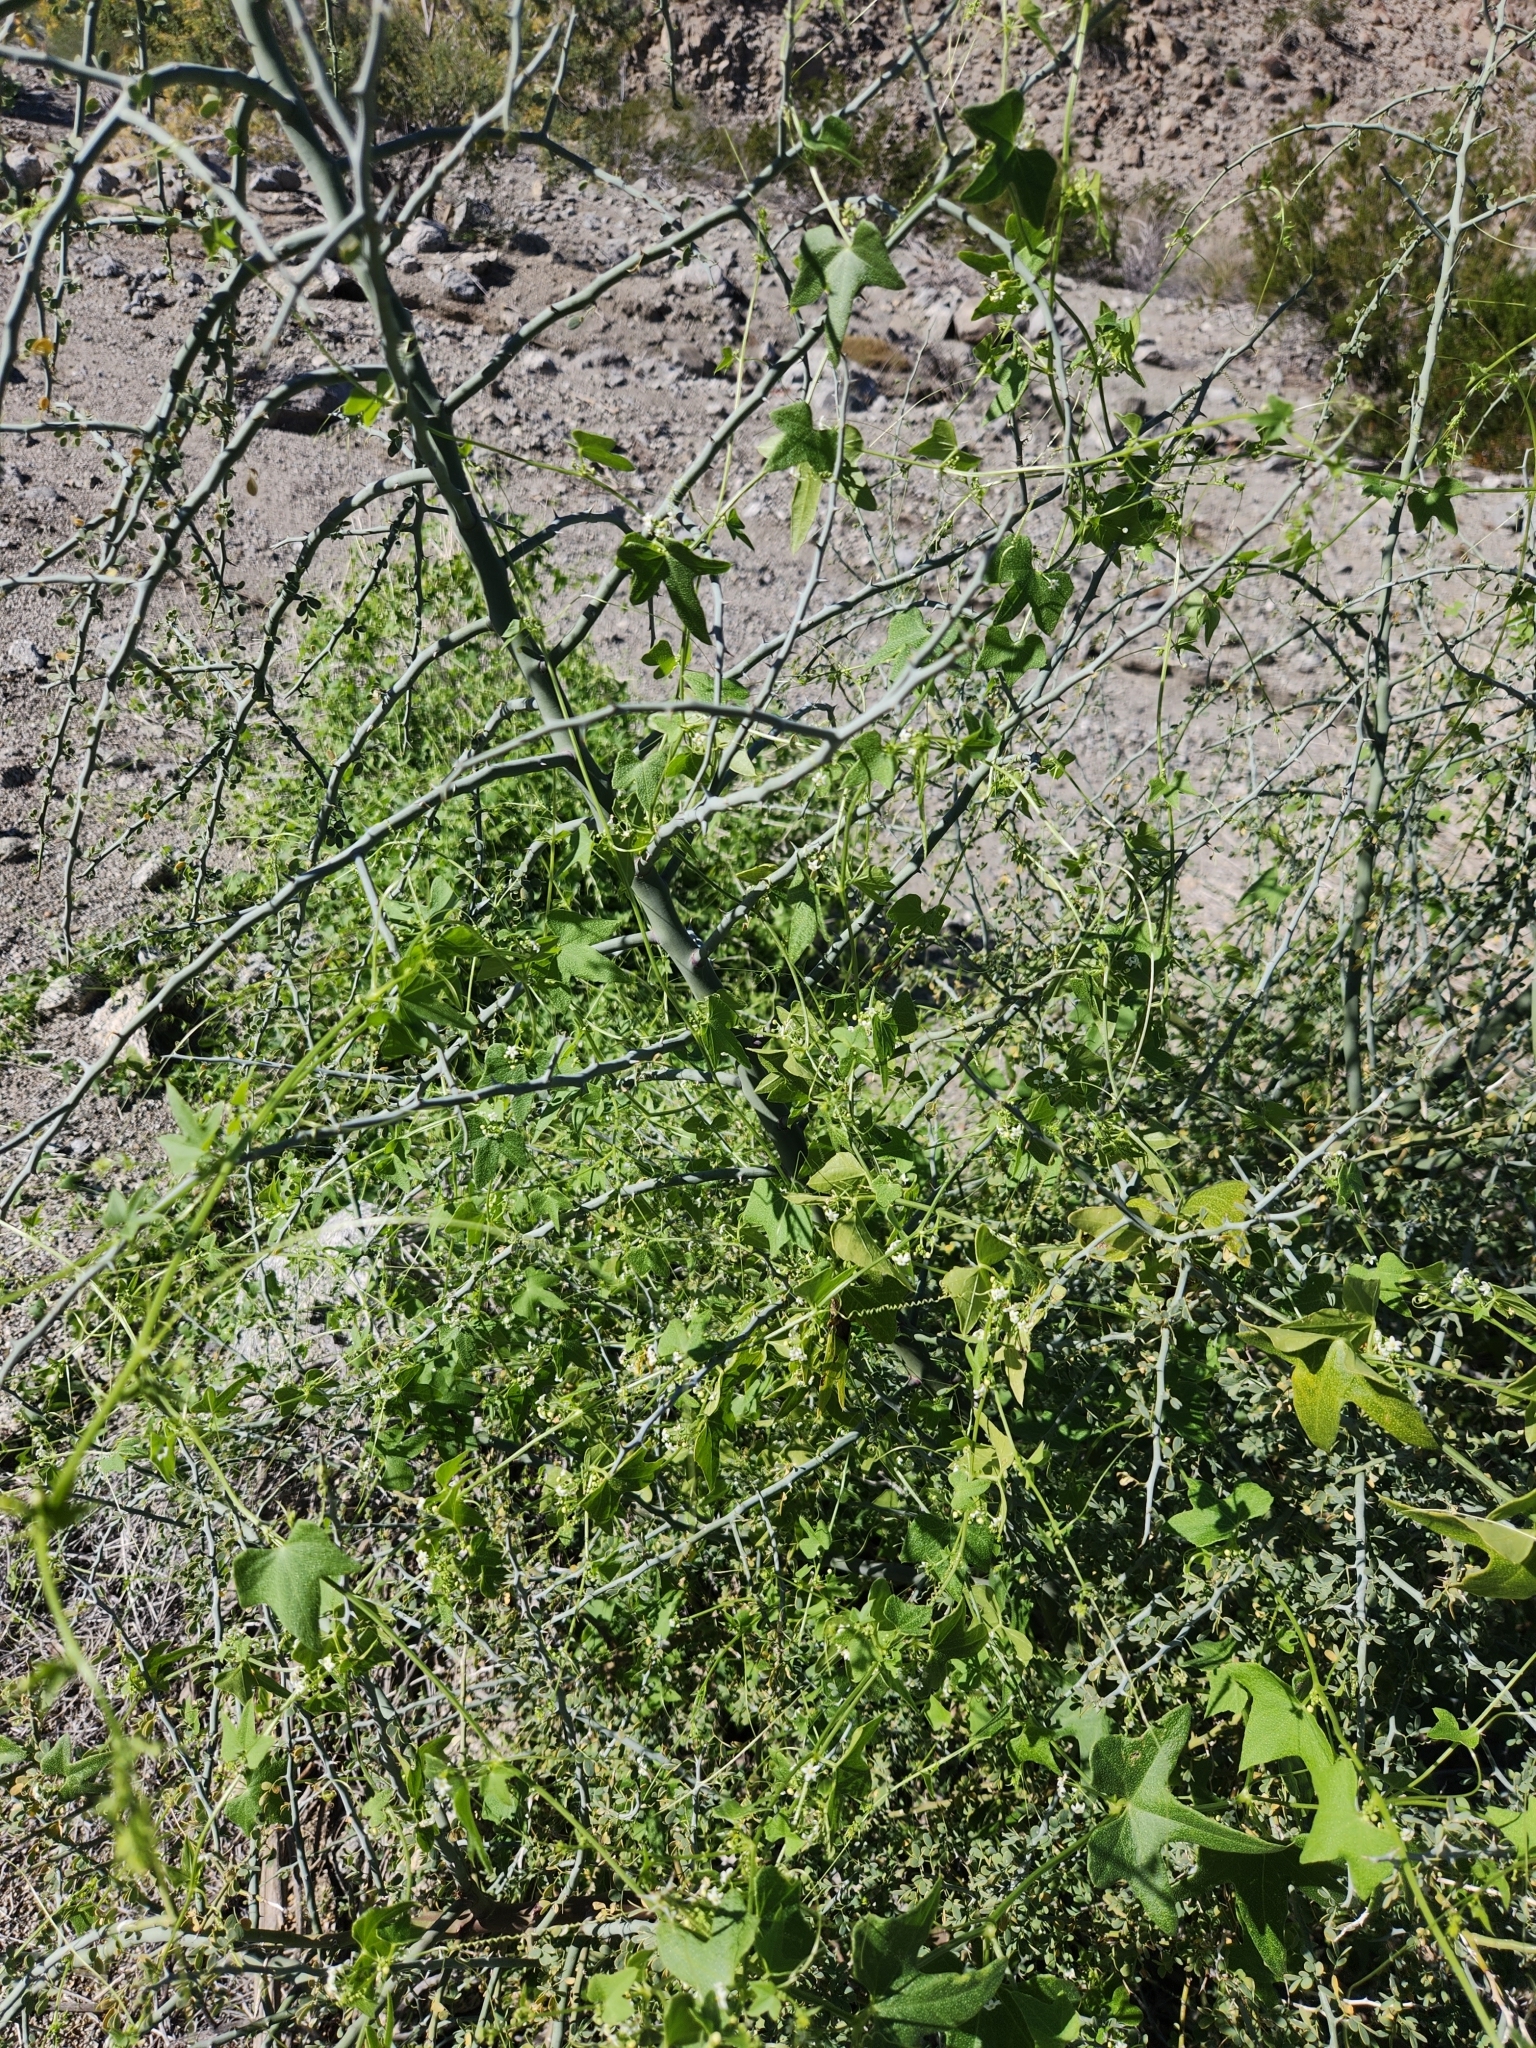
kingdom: Plantae
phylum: Tracheophyta
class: Magnoliopsida
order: Cucurbitales
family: Cucurbitaceae
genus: Echinopepon
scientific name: Echinopepon bigelovii
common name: Desert starvine
